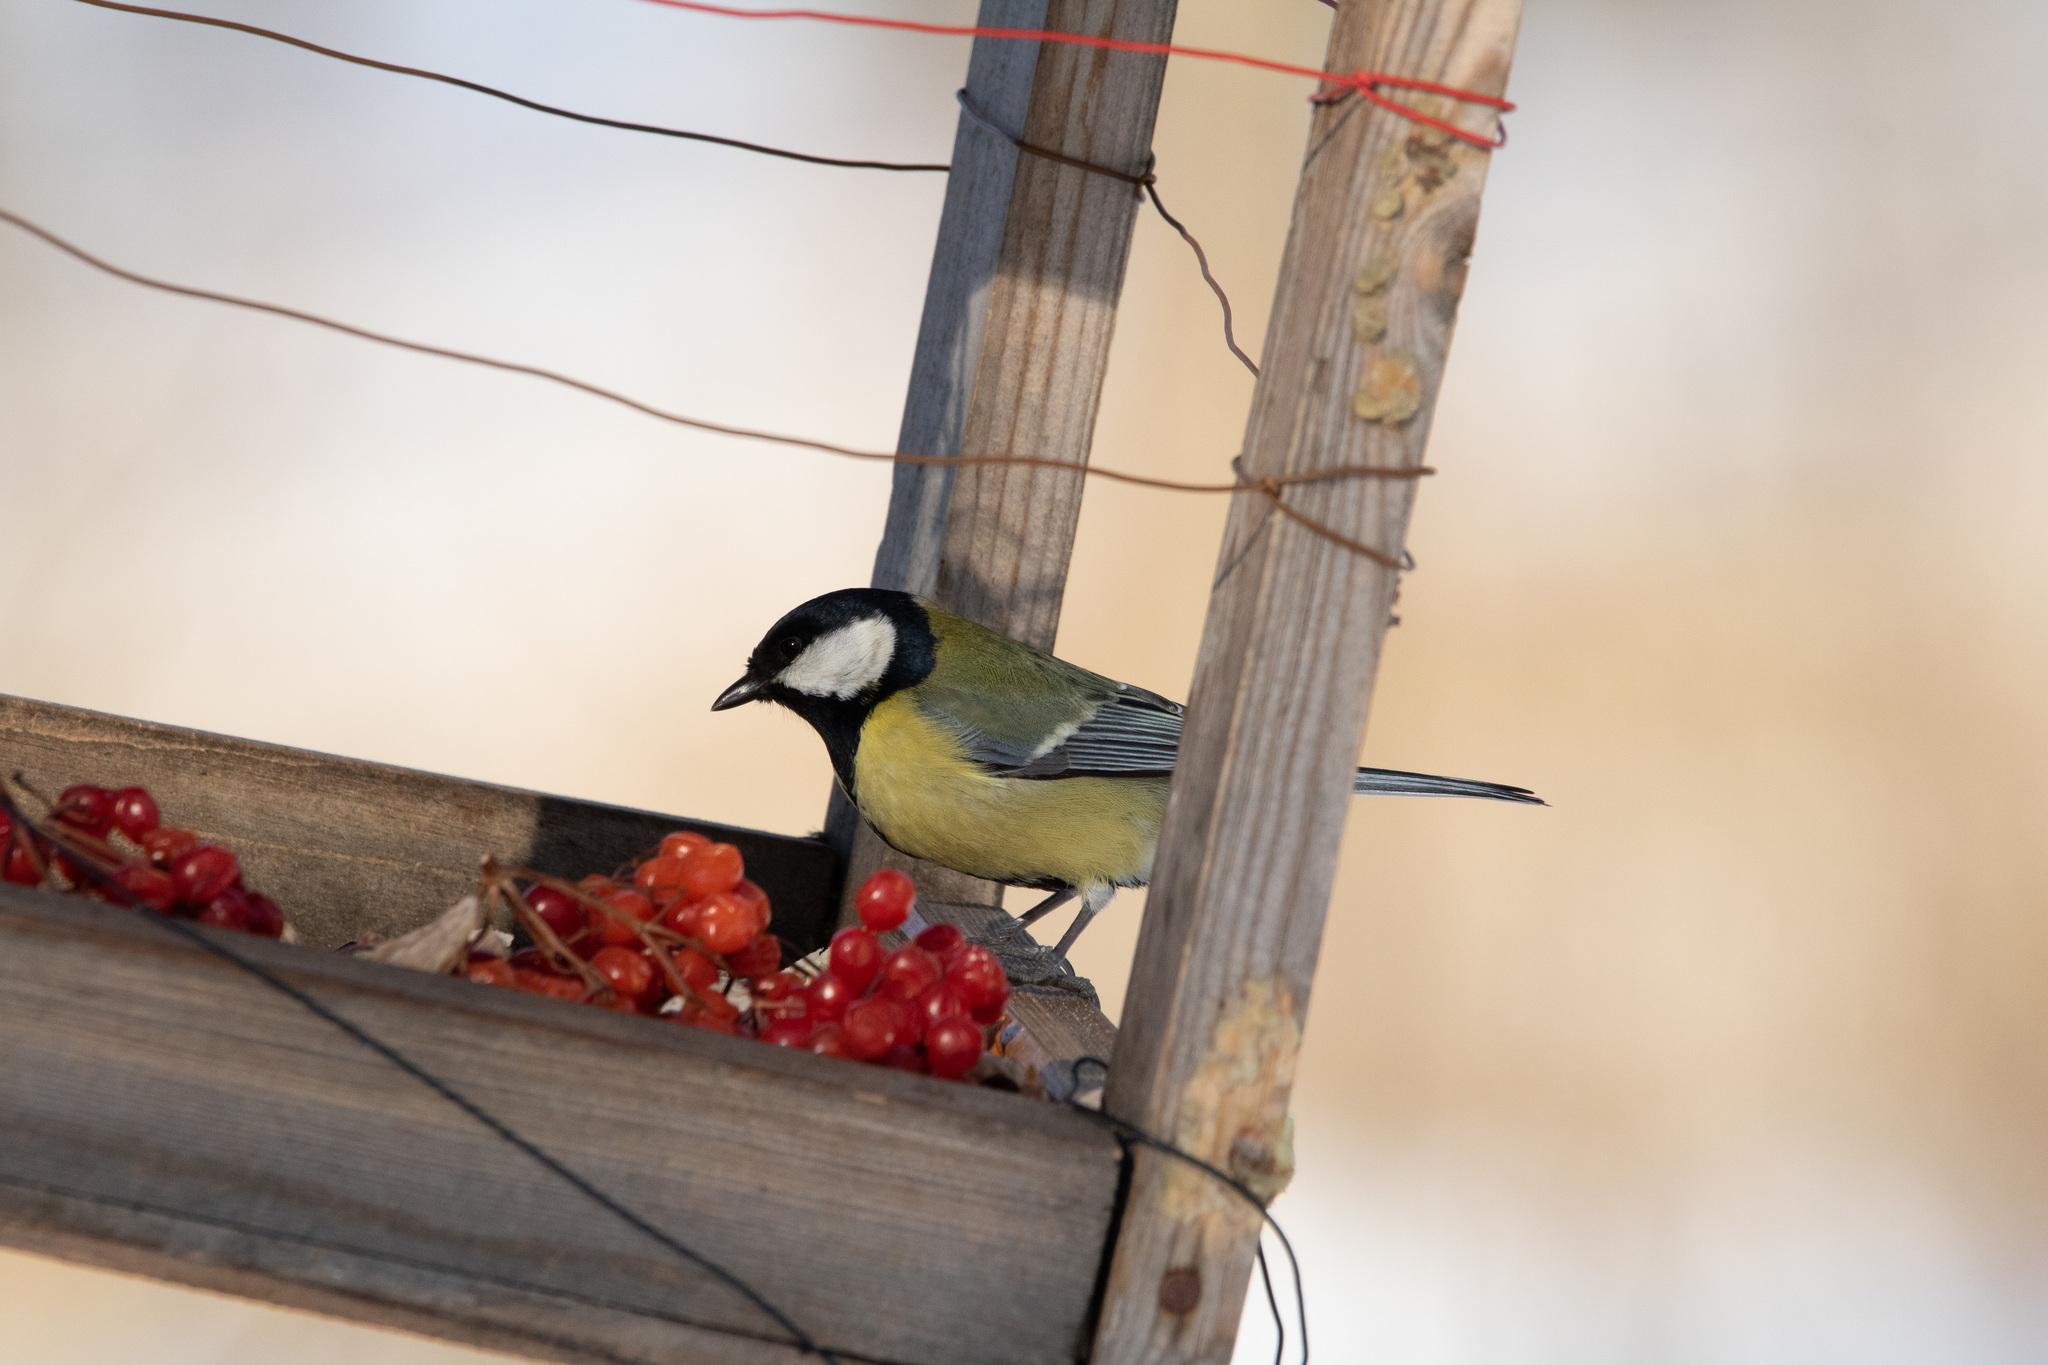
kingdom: Animalia
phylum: Chordata
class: Aves
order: Passeriformes
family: Paridae
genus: Parus
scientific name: Parus major
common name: Great tit
